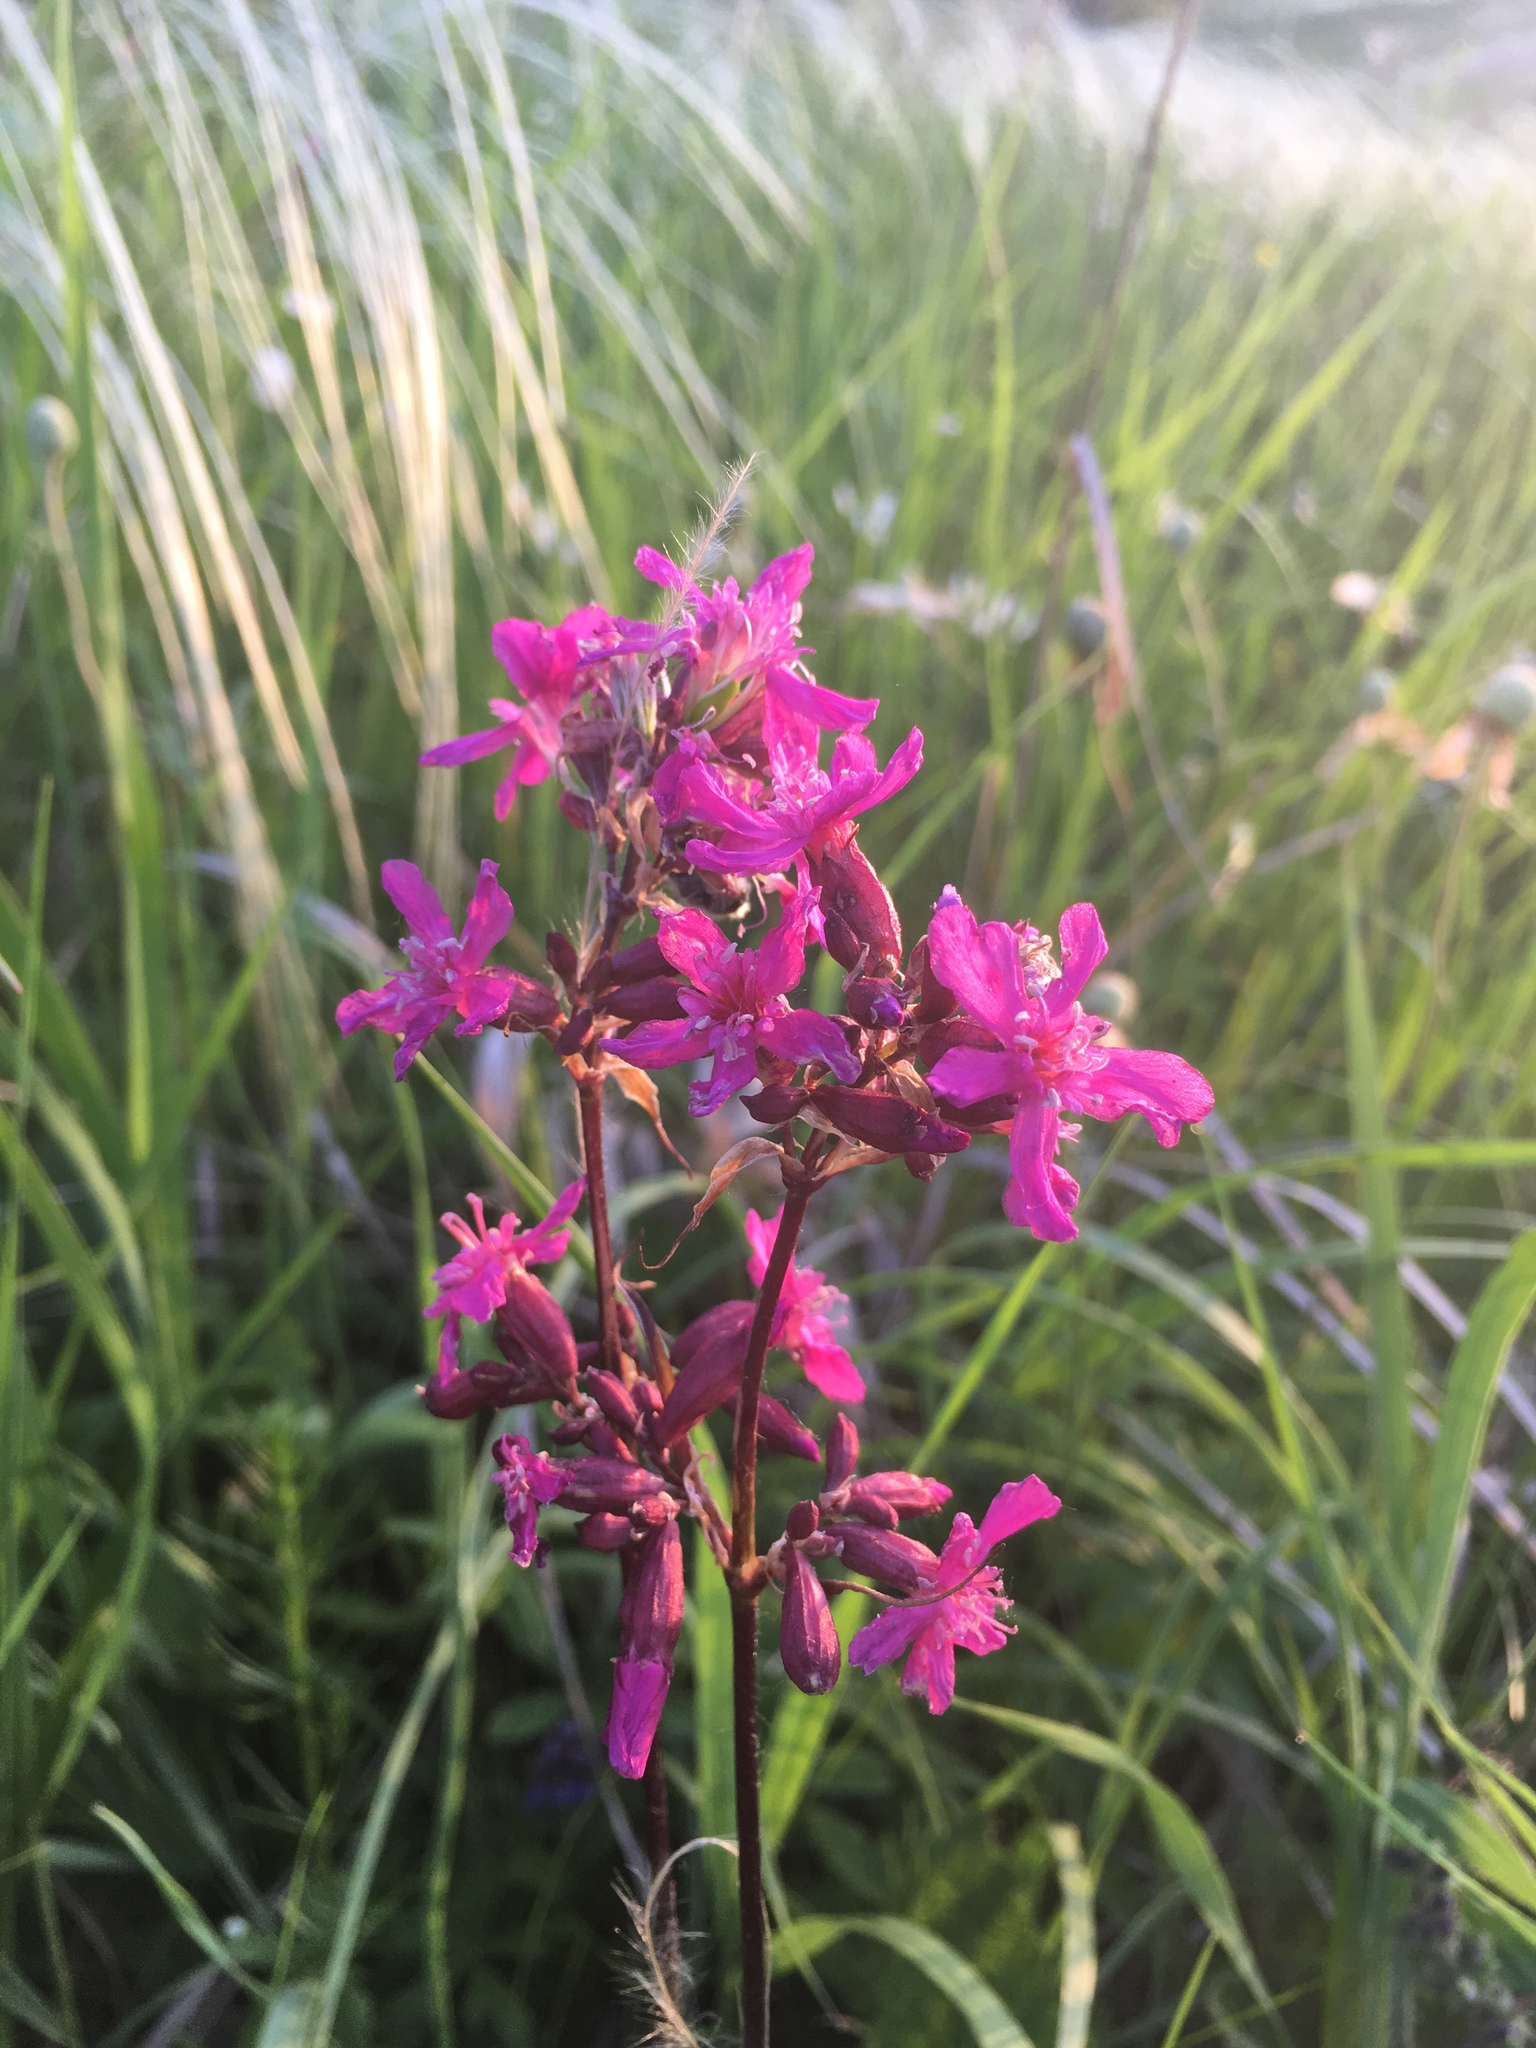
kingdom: Plantae
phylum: Tracheophyta
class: Magnoliopsida
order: Caryophyllales
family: Caryophyllaceae
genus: Viscaria
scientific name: Viscaria vulgaris
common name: Clammy campion
